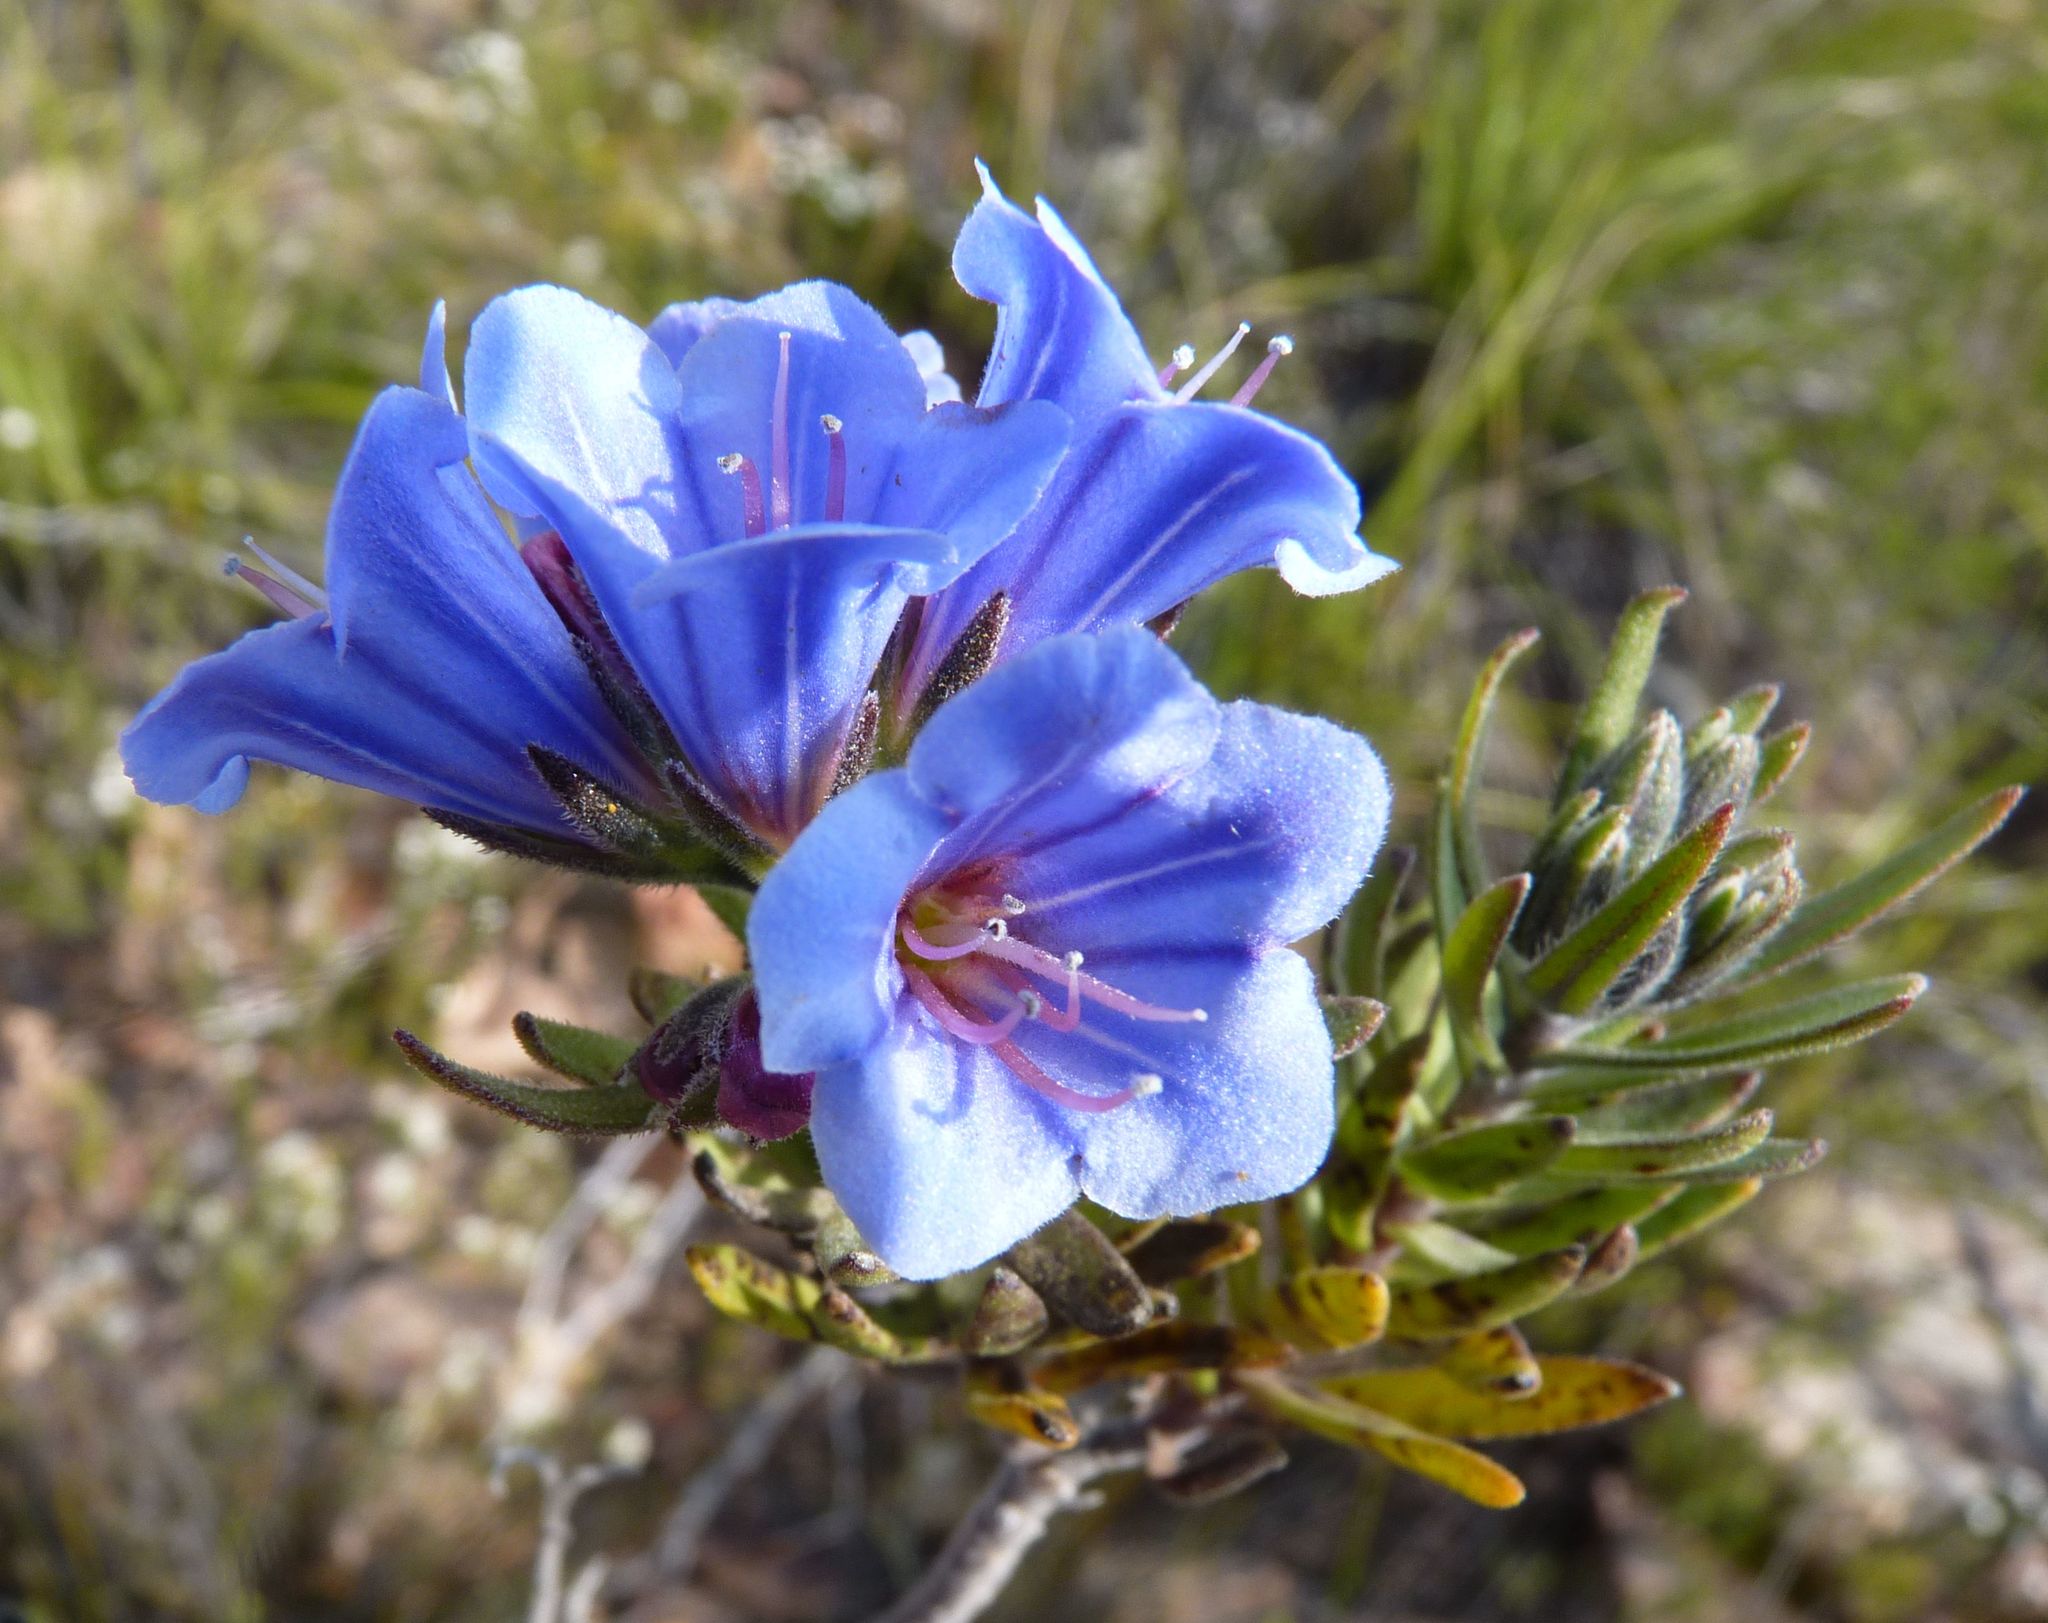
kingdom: Plantae
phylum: Tracheophyta
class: Magnoliopsida
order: Boraginales
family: Boraginaceae
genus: Lobostemon
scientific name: Lobostemon marlothii
